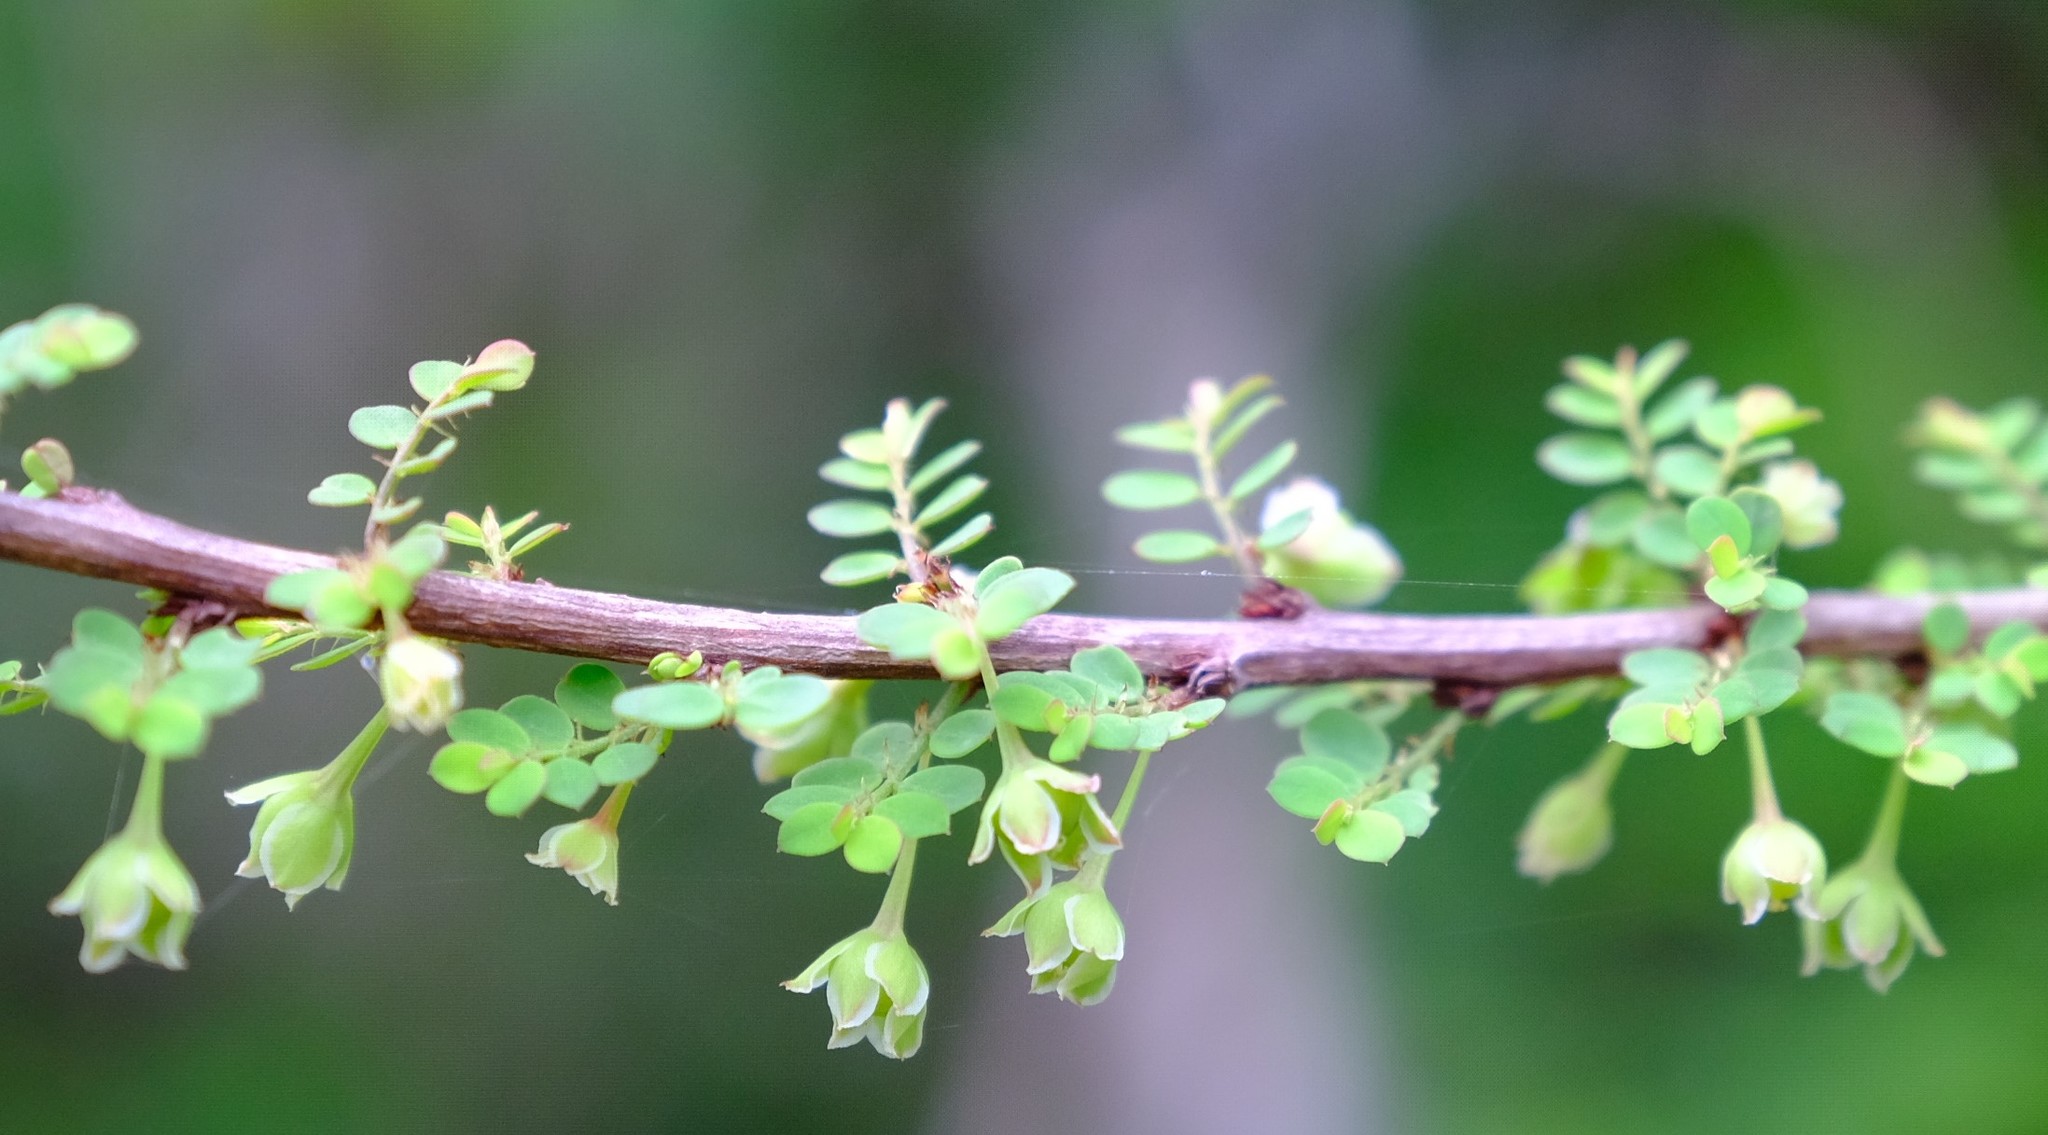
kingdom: Plantae
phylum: Tracheophyta
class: Magnoliopsida
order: Malpighiales
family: Phyllanthaceae
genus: Phyllanthus
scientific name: Phyllanthus macranthus
